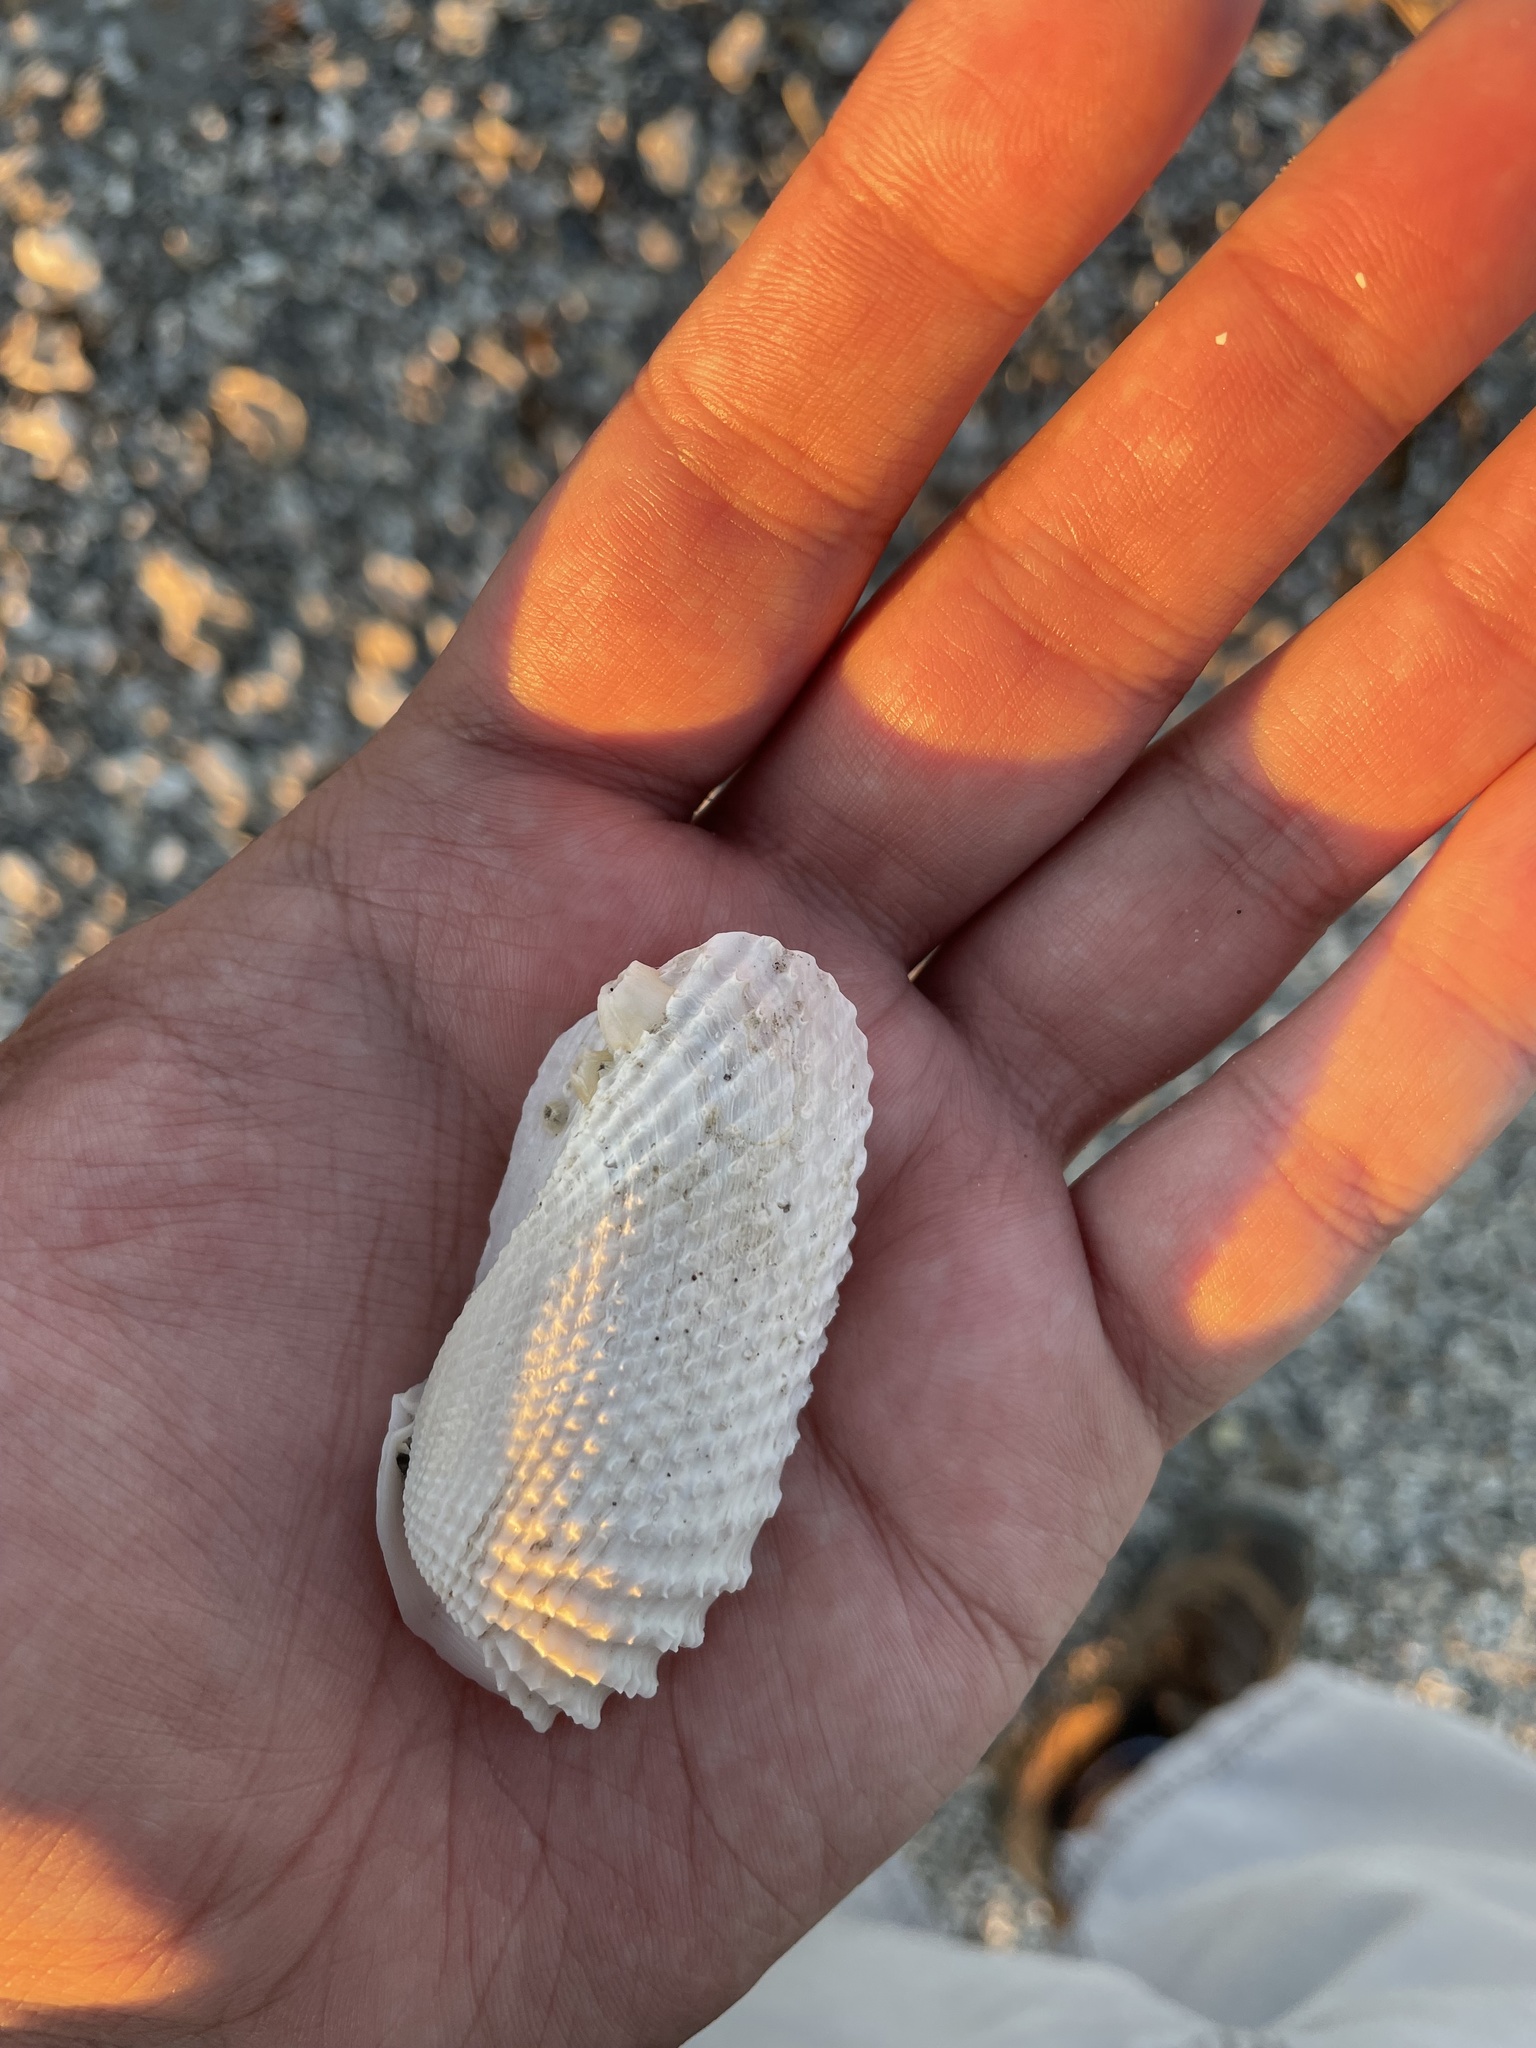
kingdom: Animalia
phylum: Mollusca
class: Bivalvia
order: Myida
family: Pholadidae
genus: Cyrtopleura
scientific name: Cyrtopleura costata
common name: Angel wing
